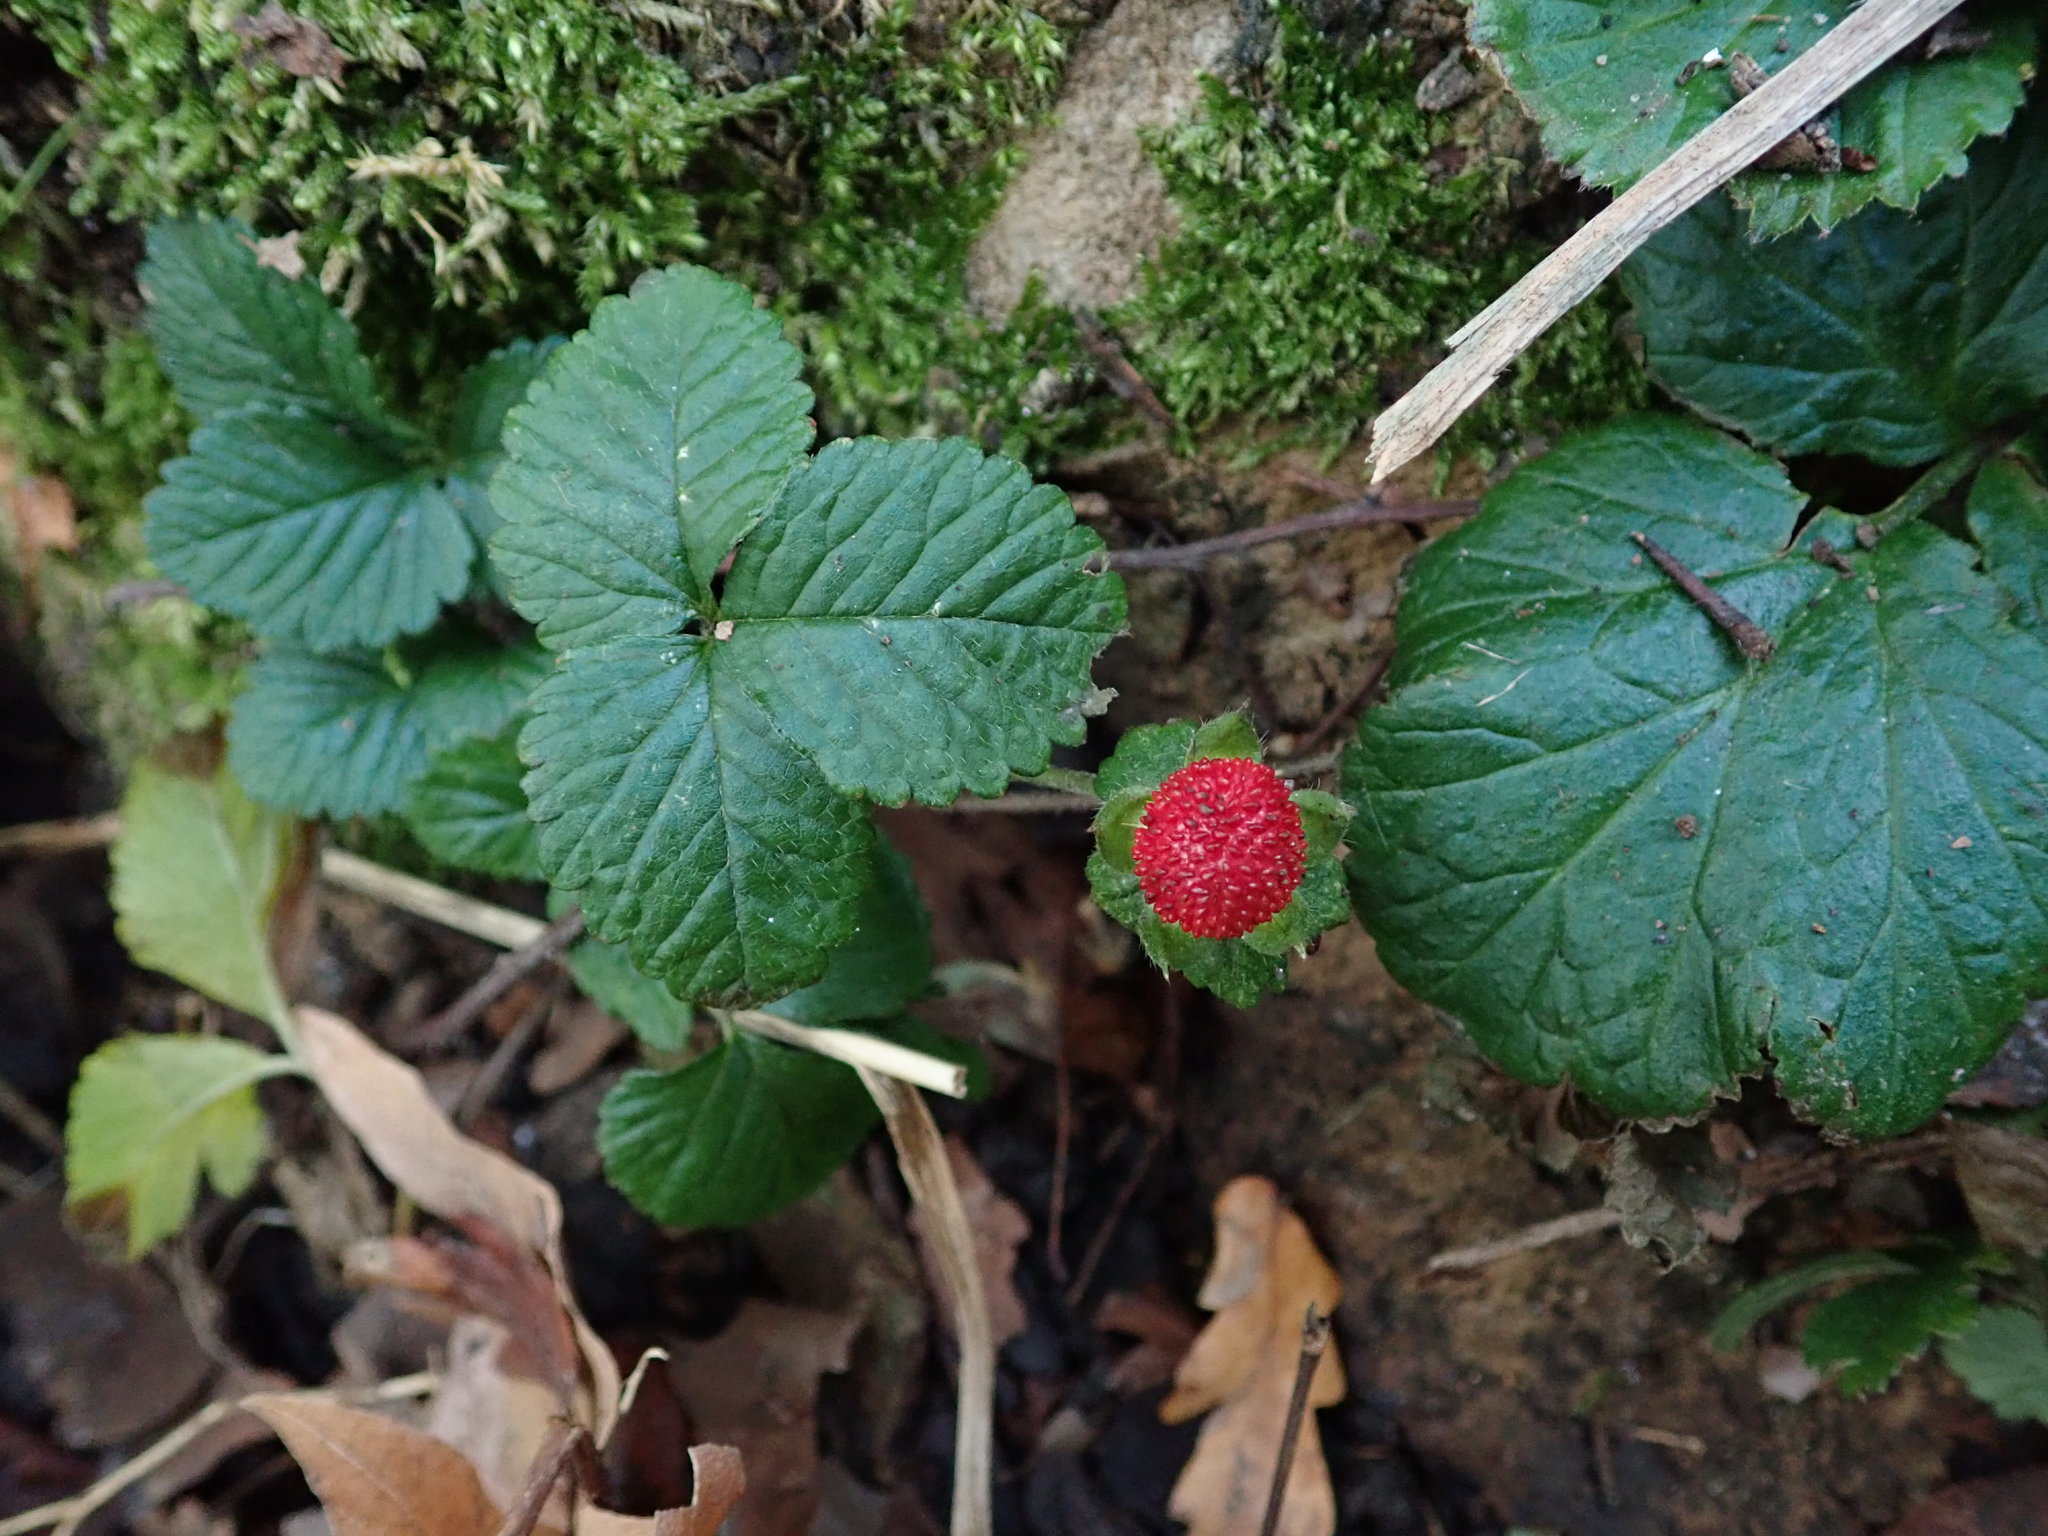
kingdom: Plantae
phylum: Tracheophyta
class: Magnoliopsida
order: Rosales
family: Rosaceae
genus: Potentilla
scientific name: Potentilla indica
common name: Yellow-flowered strawberry
